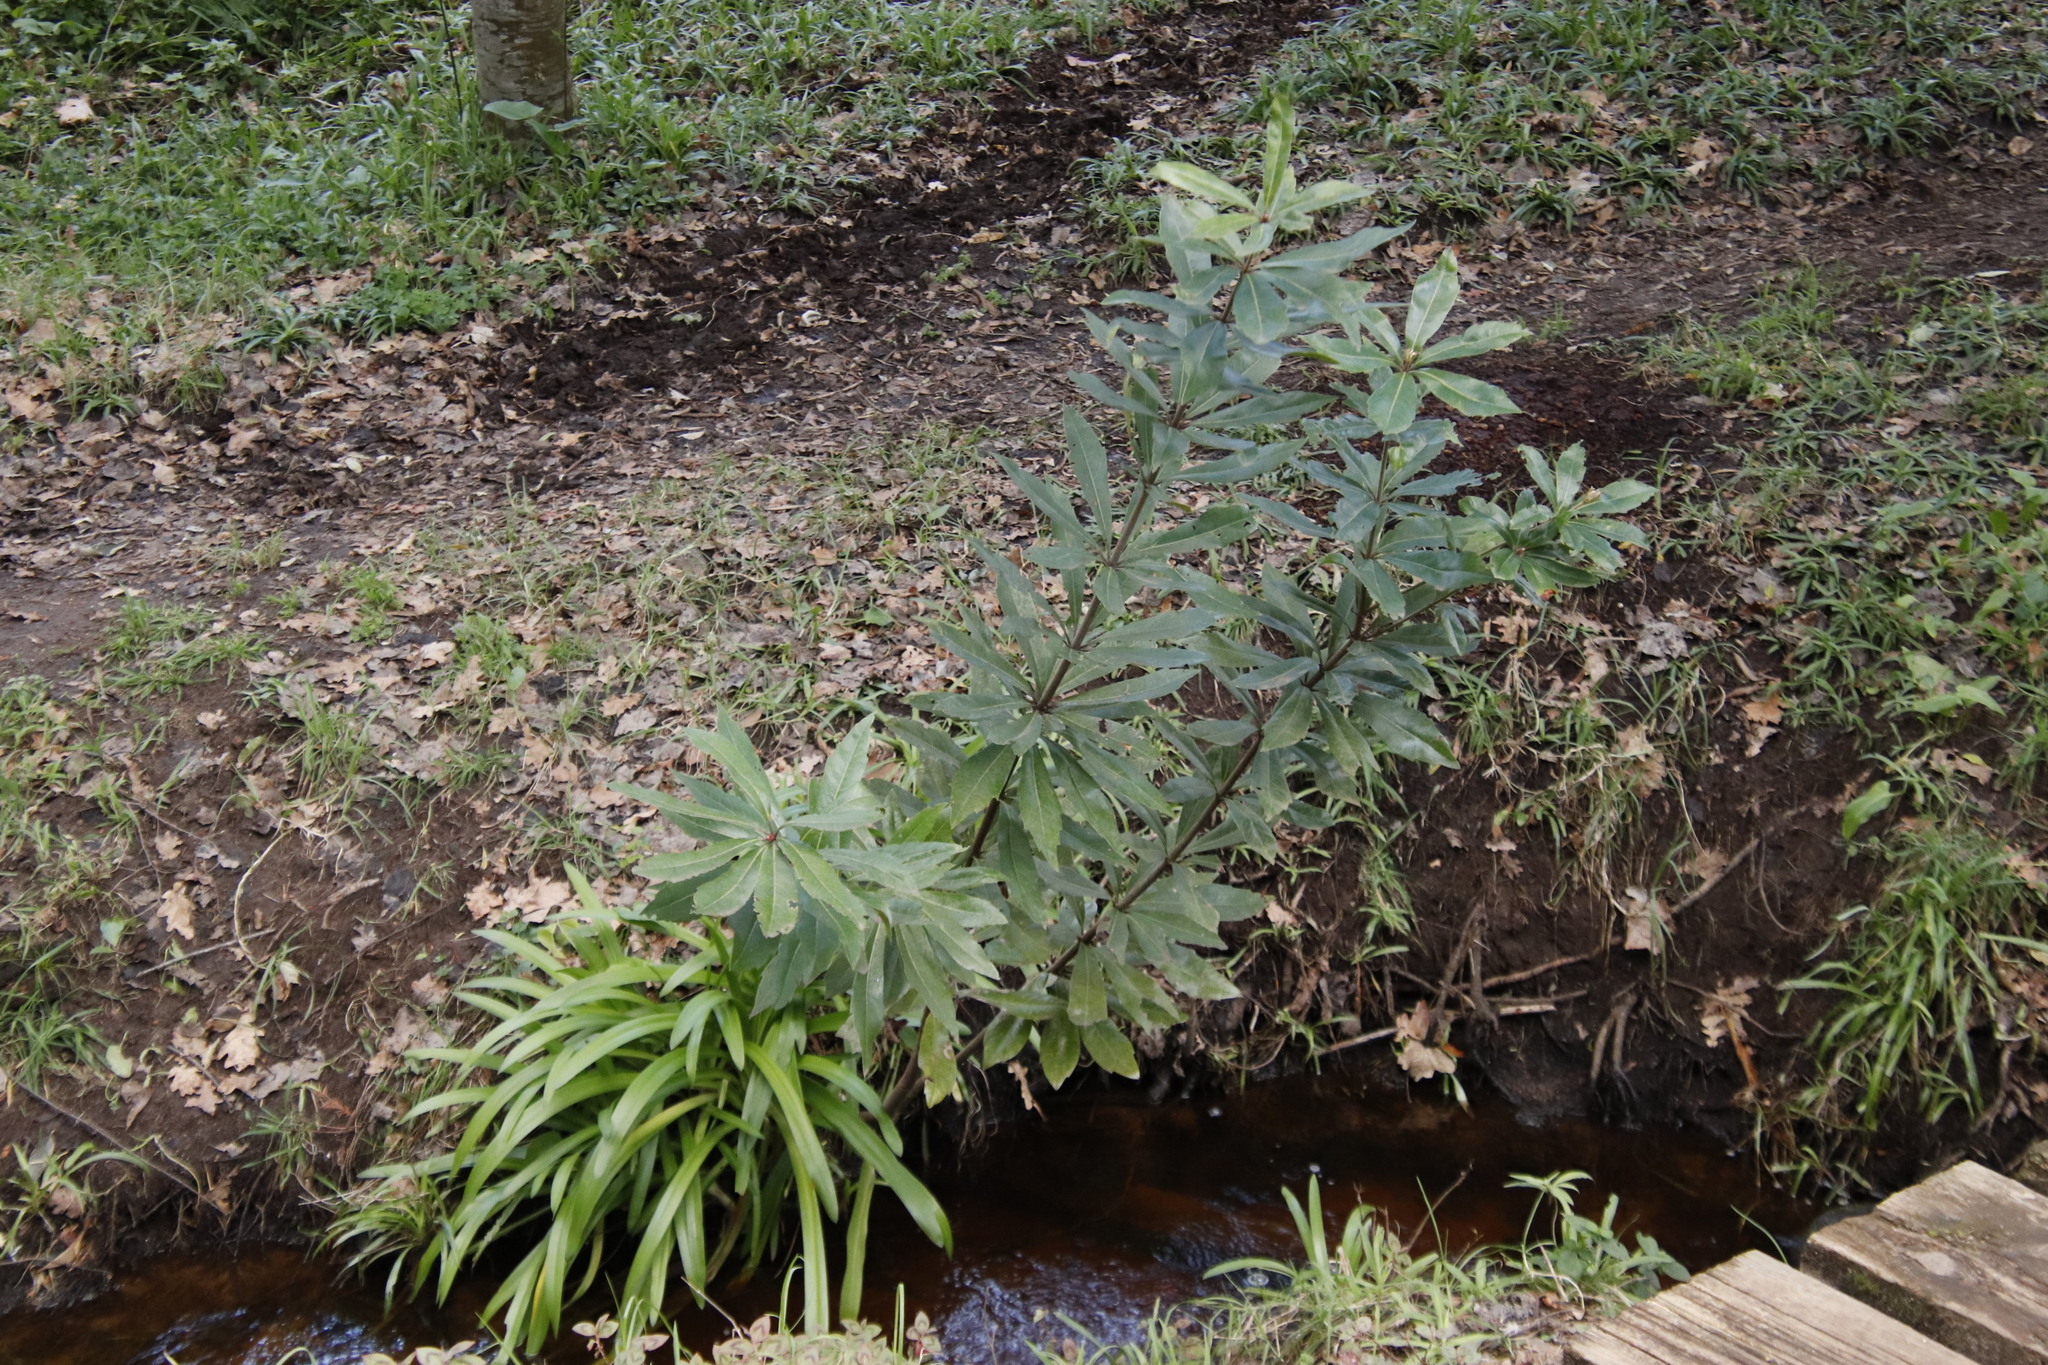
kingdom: Plantae
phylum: Tracheophyta
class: Magnoliopsida
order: Proteales
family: Proteaceae
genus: Brabejum
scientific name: Brabejum stellatifolium
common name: Wild almond
